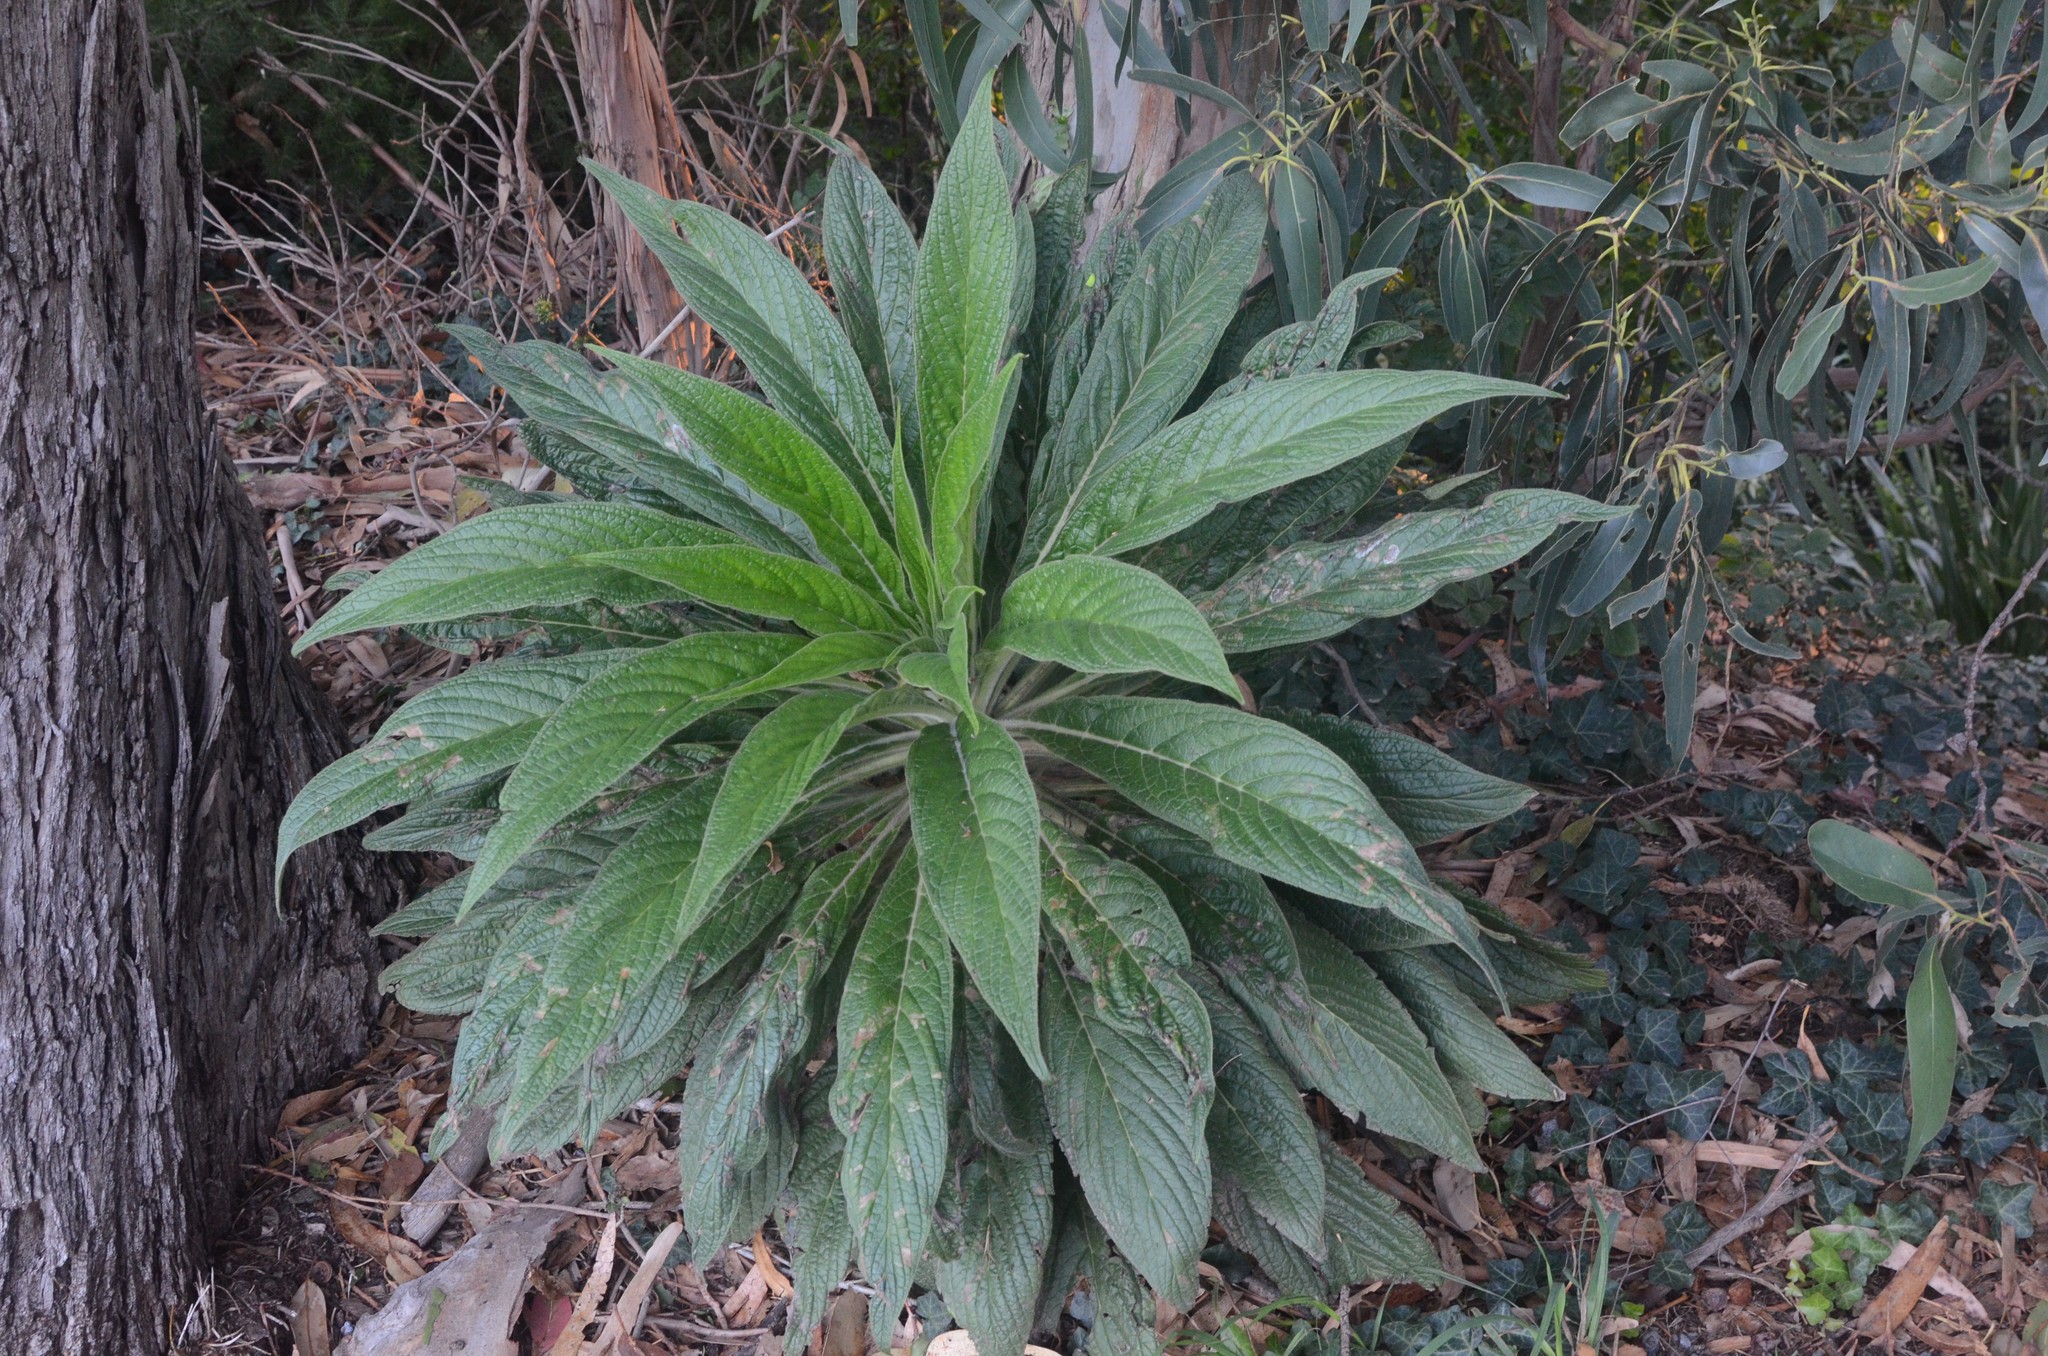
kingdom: Plantae
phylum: Tracheophyta
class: Magnoliopsida
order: Boraginales
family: Boraginaceae
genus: Echium
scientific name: Echium candicans
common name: Pride of madeira
